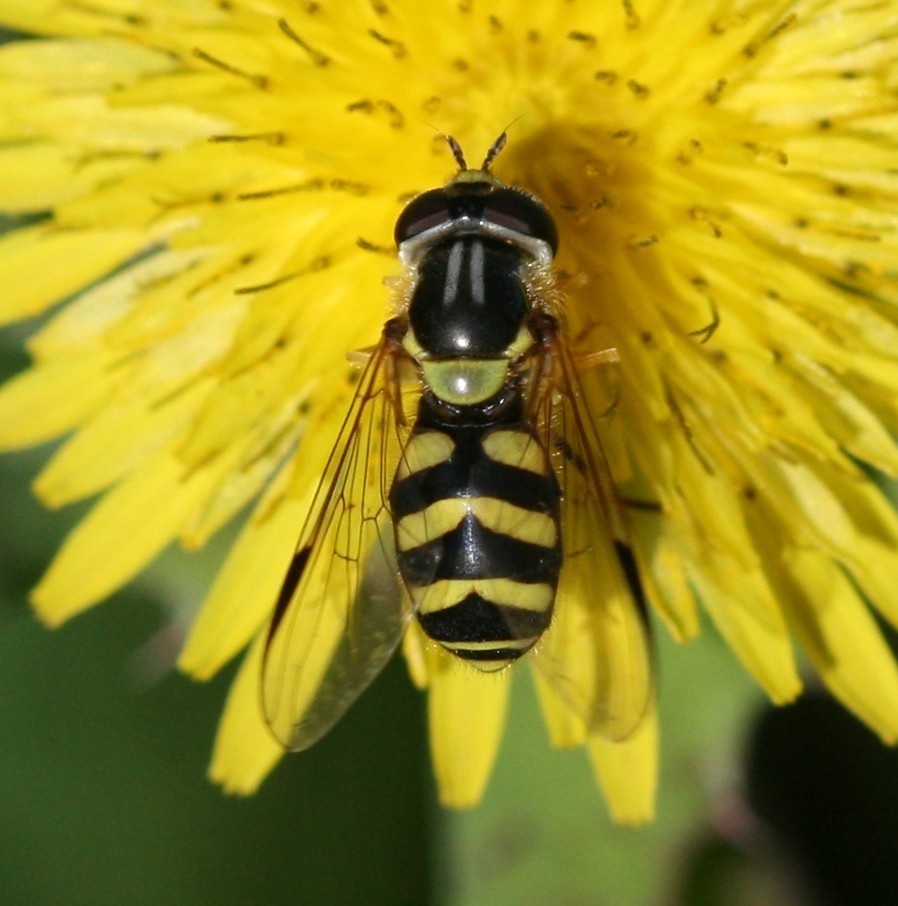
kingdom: Animalia
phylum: Arthropoda
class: Insecta
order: Diptera
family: Syrphidae
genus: Dasysyrphus
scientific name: Dasysyrphus albostriatus
